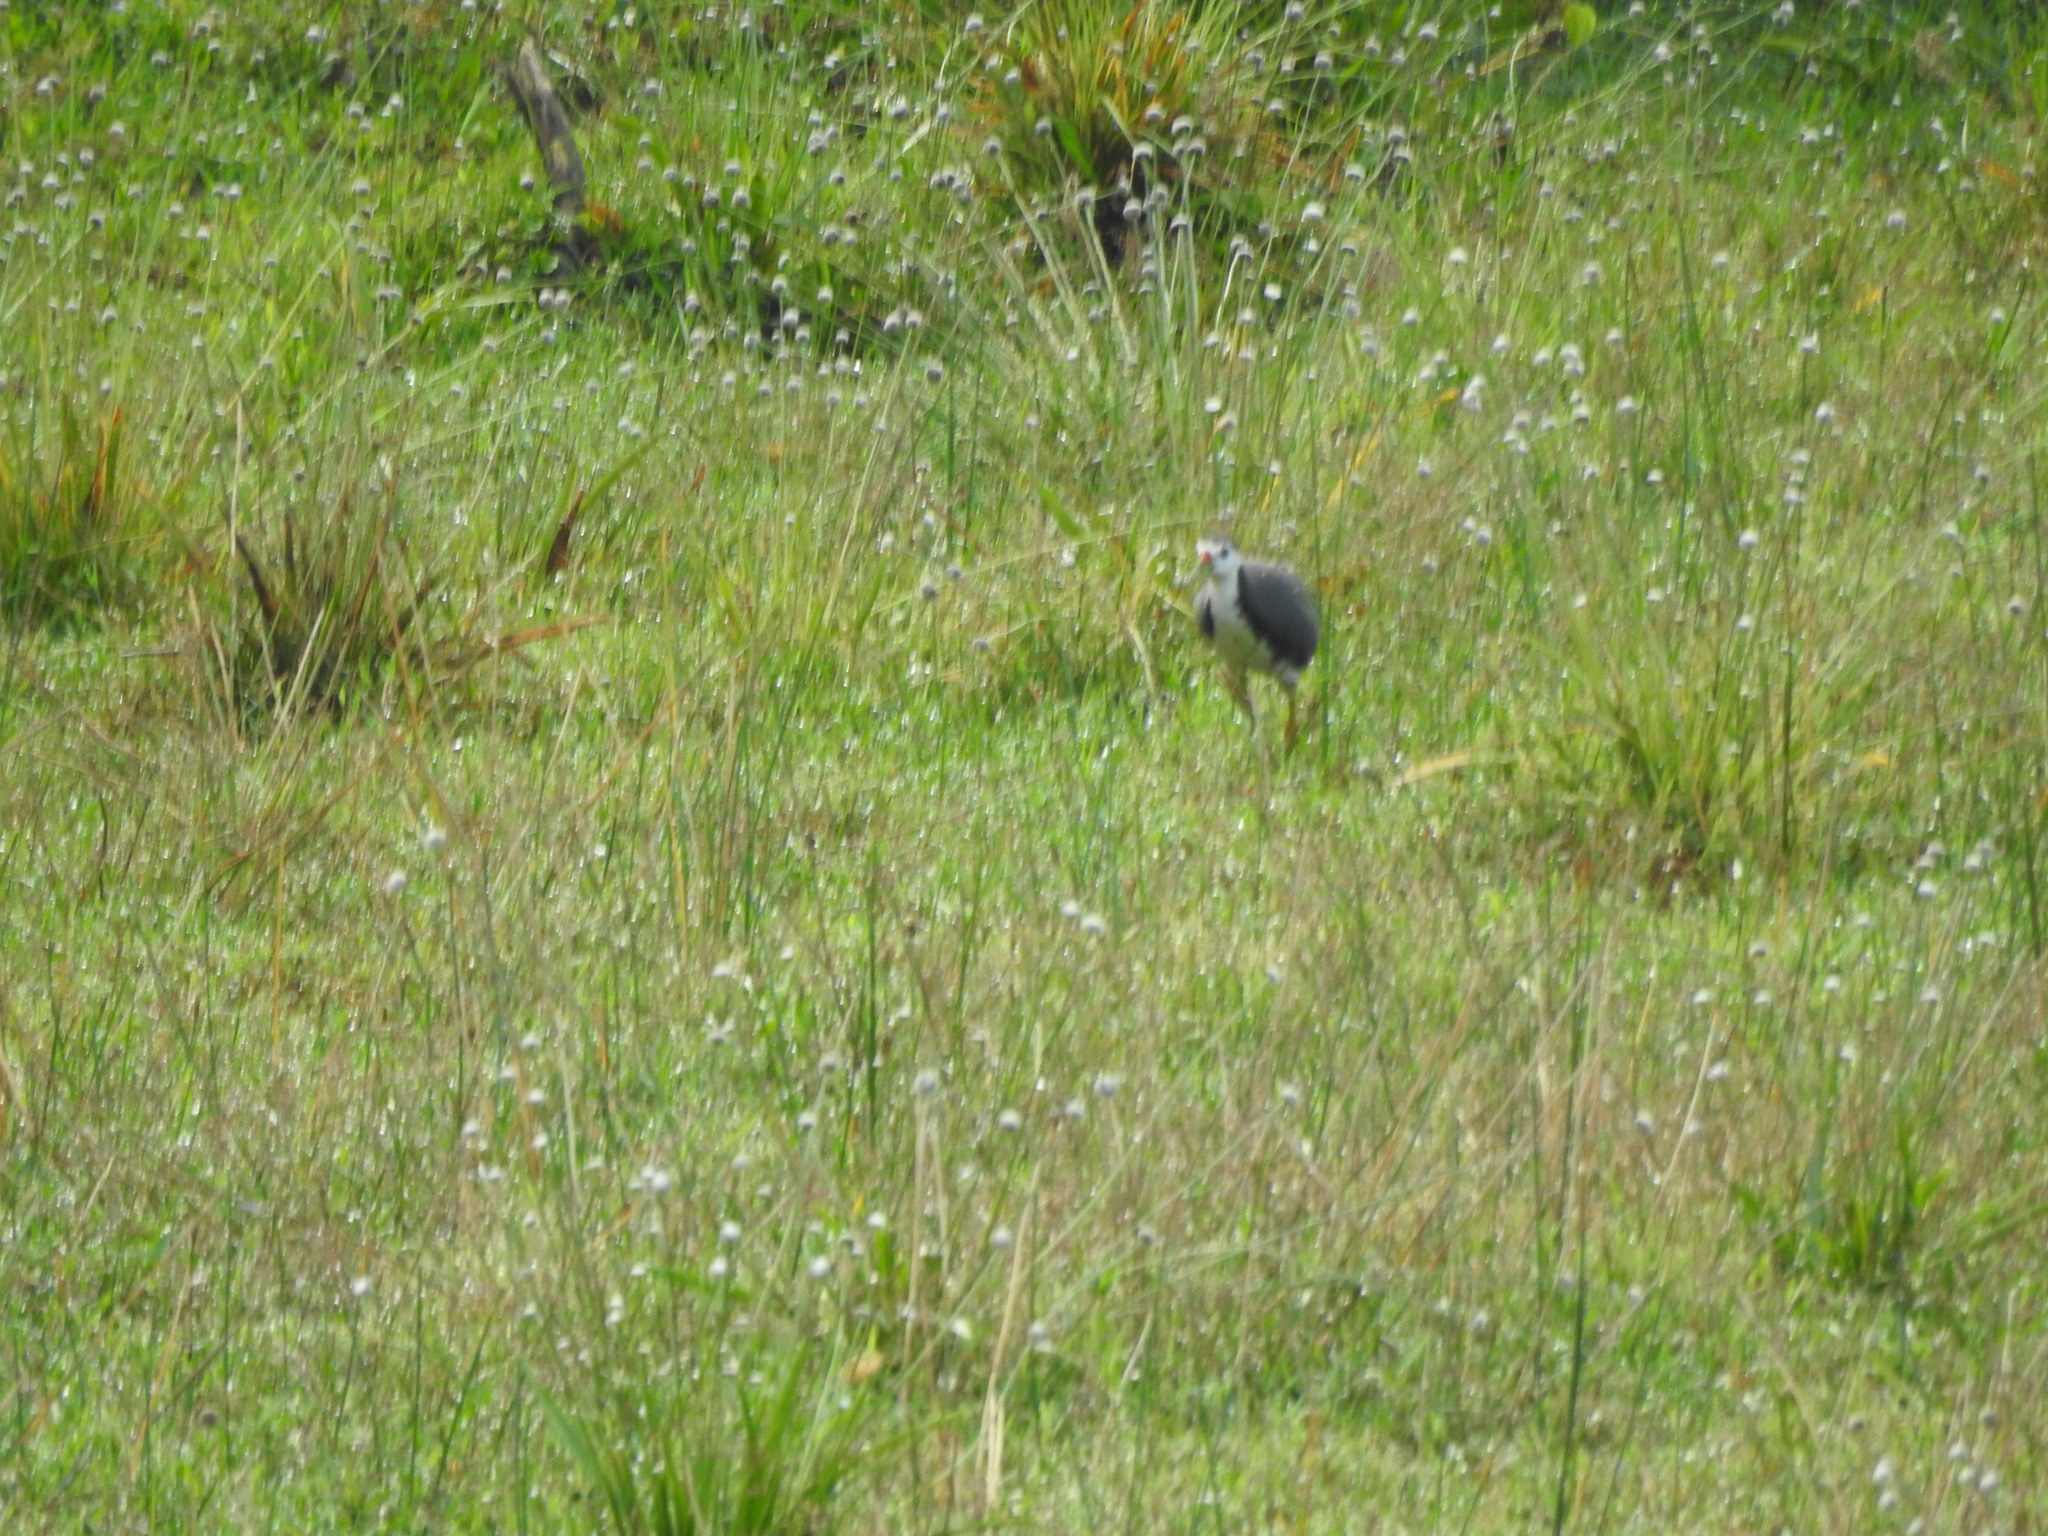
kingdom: Animalia
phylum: Chordata
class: Aves
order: Gruiformes
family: Rallidae
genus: Amaurornis
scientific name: Amaurornis phoenicurus
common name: White-breasted waterhen
